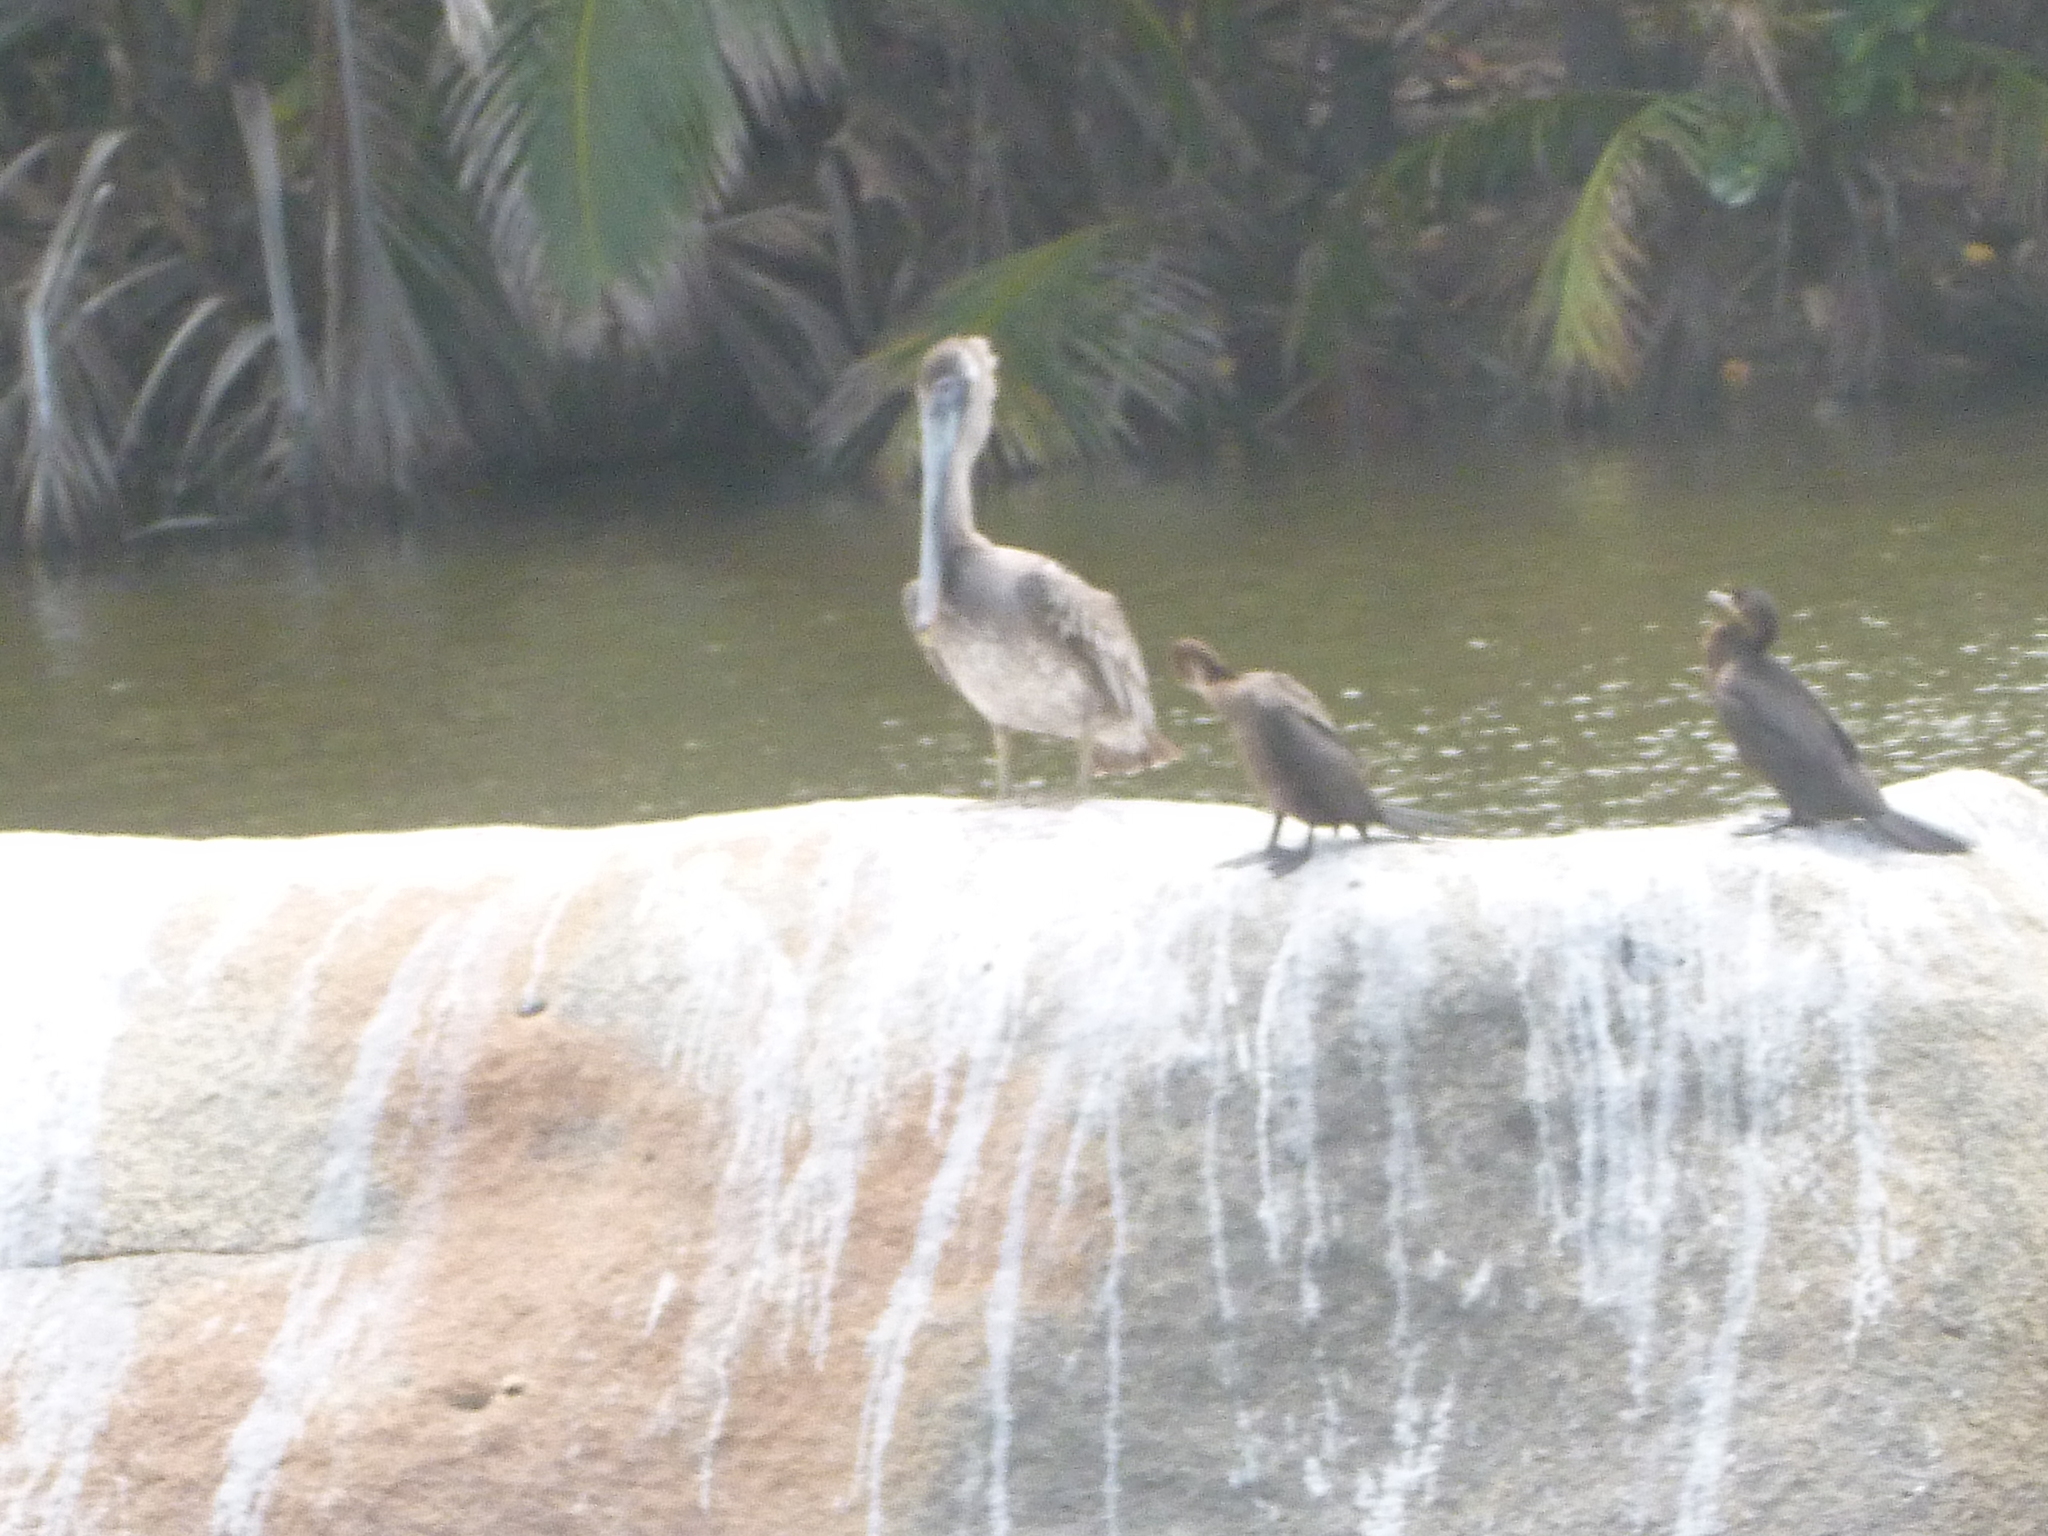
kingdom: Animalia
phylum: Chordata
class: Aves
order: Pelecaniformes
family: Pelecanidae
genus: Pelecanus
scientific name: Pelecanus occidentalis
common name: Brown pelican
